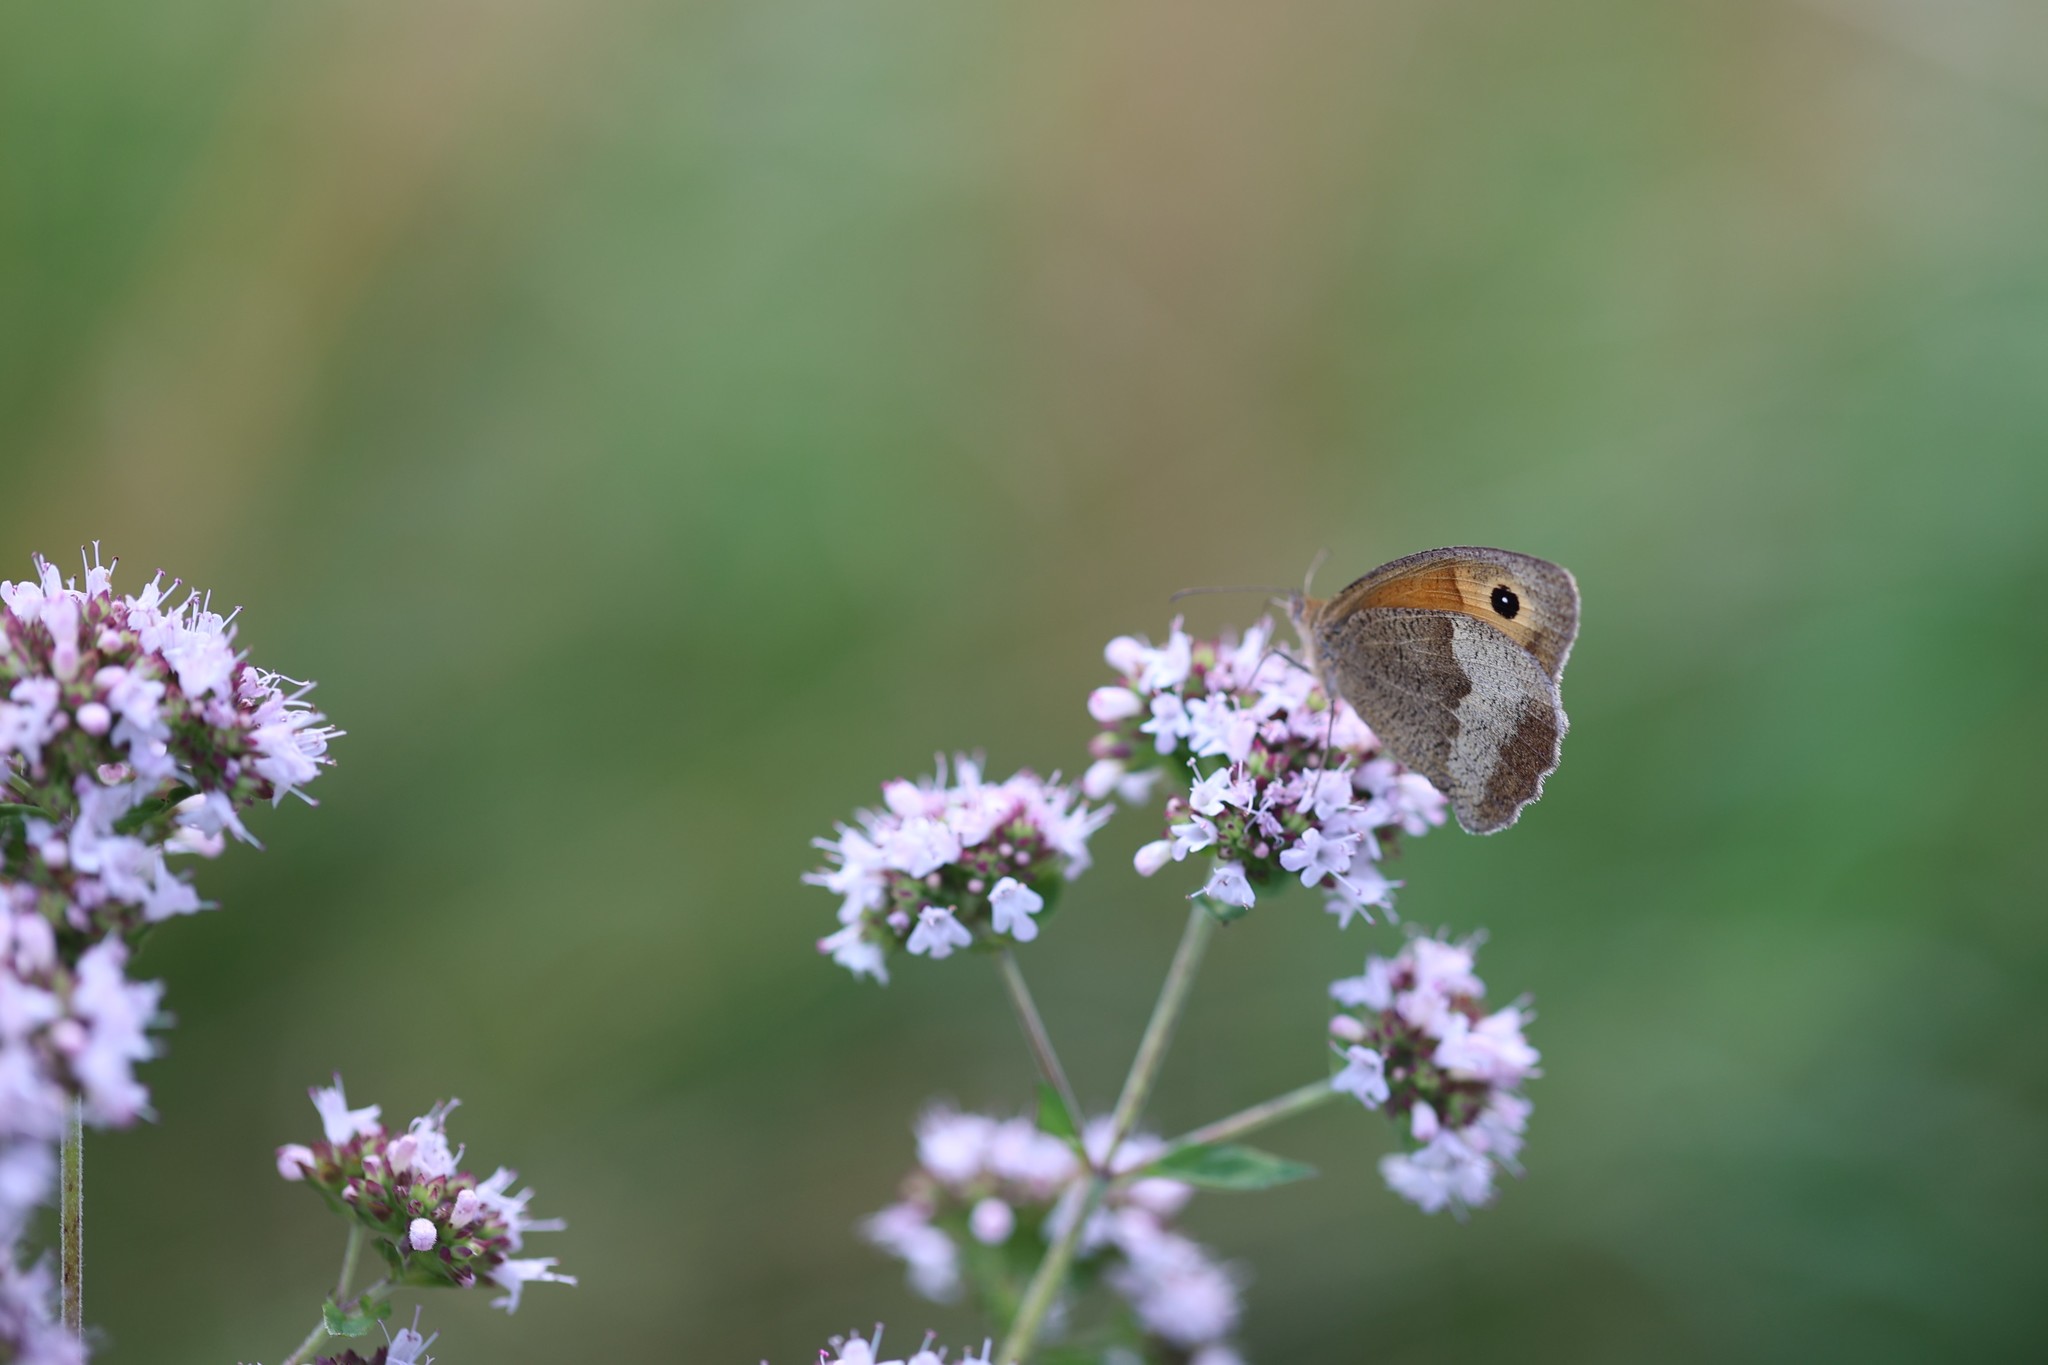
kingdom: Animalia
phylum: Arthropoda
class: Insecta
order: Lepidoptera
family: Nymphalidae
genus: Maniola
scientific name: Maniola jurtina
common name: Meadow brown
